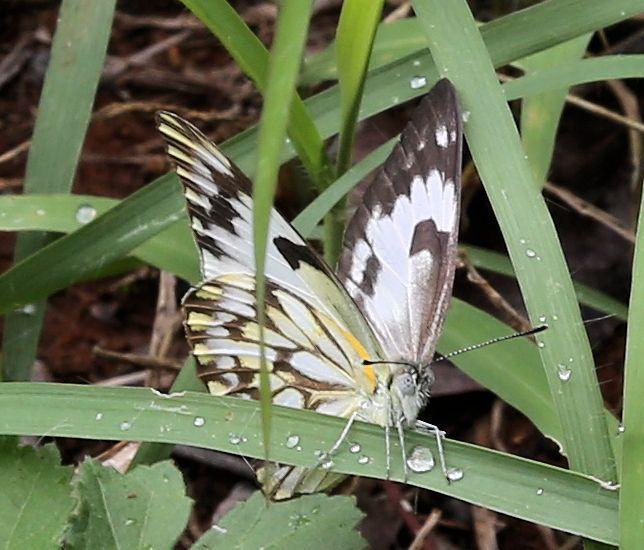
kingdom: Animalia
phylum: Arthropoda
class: Insecta
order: Lepidoptera
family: Pieridae
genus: Belenois
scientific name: Belenois gidica
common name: Pointed caper white
